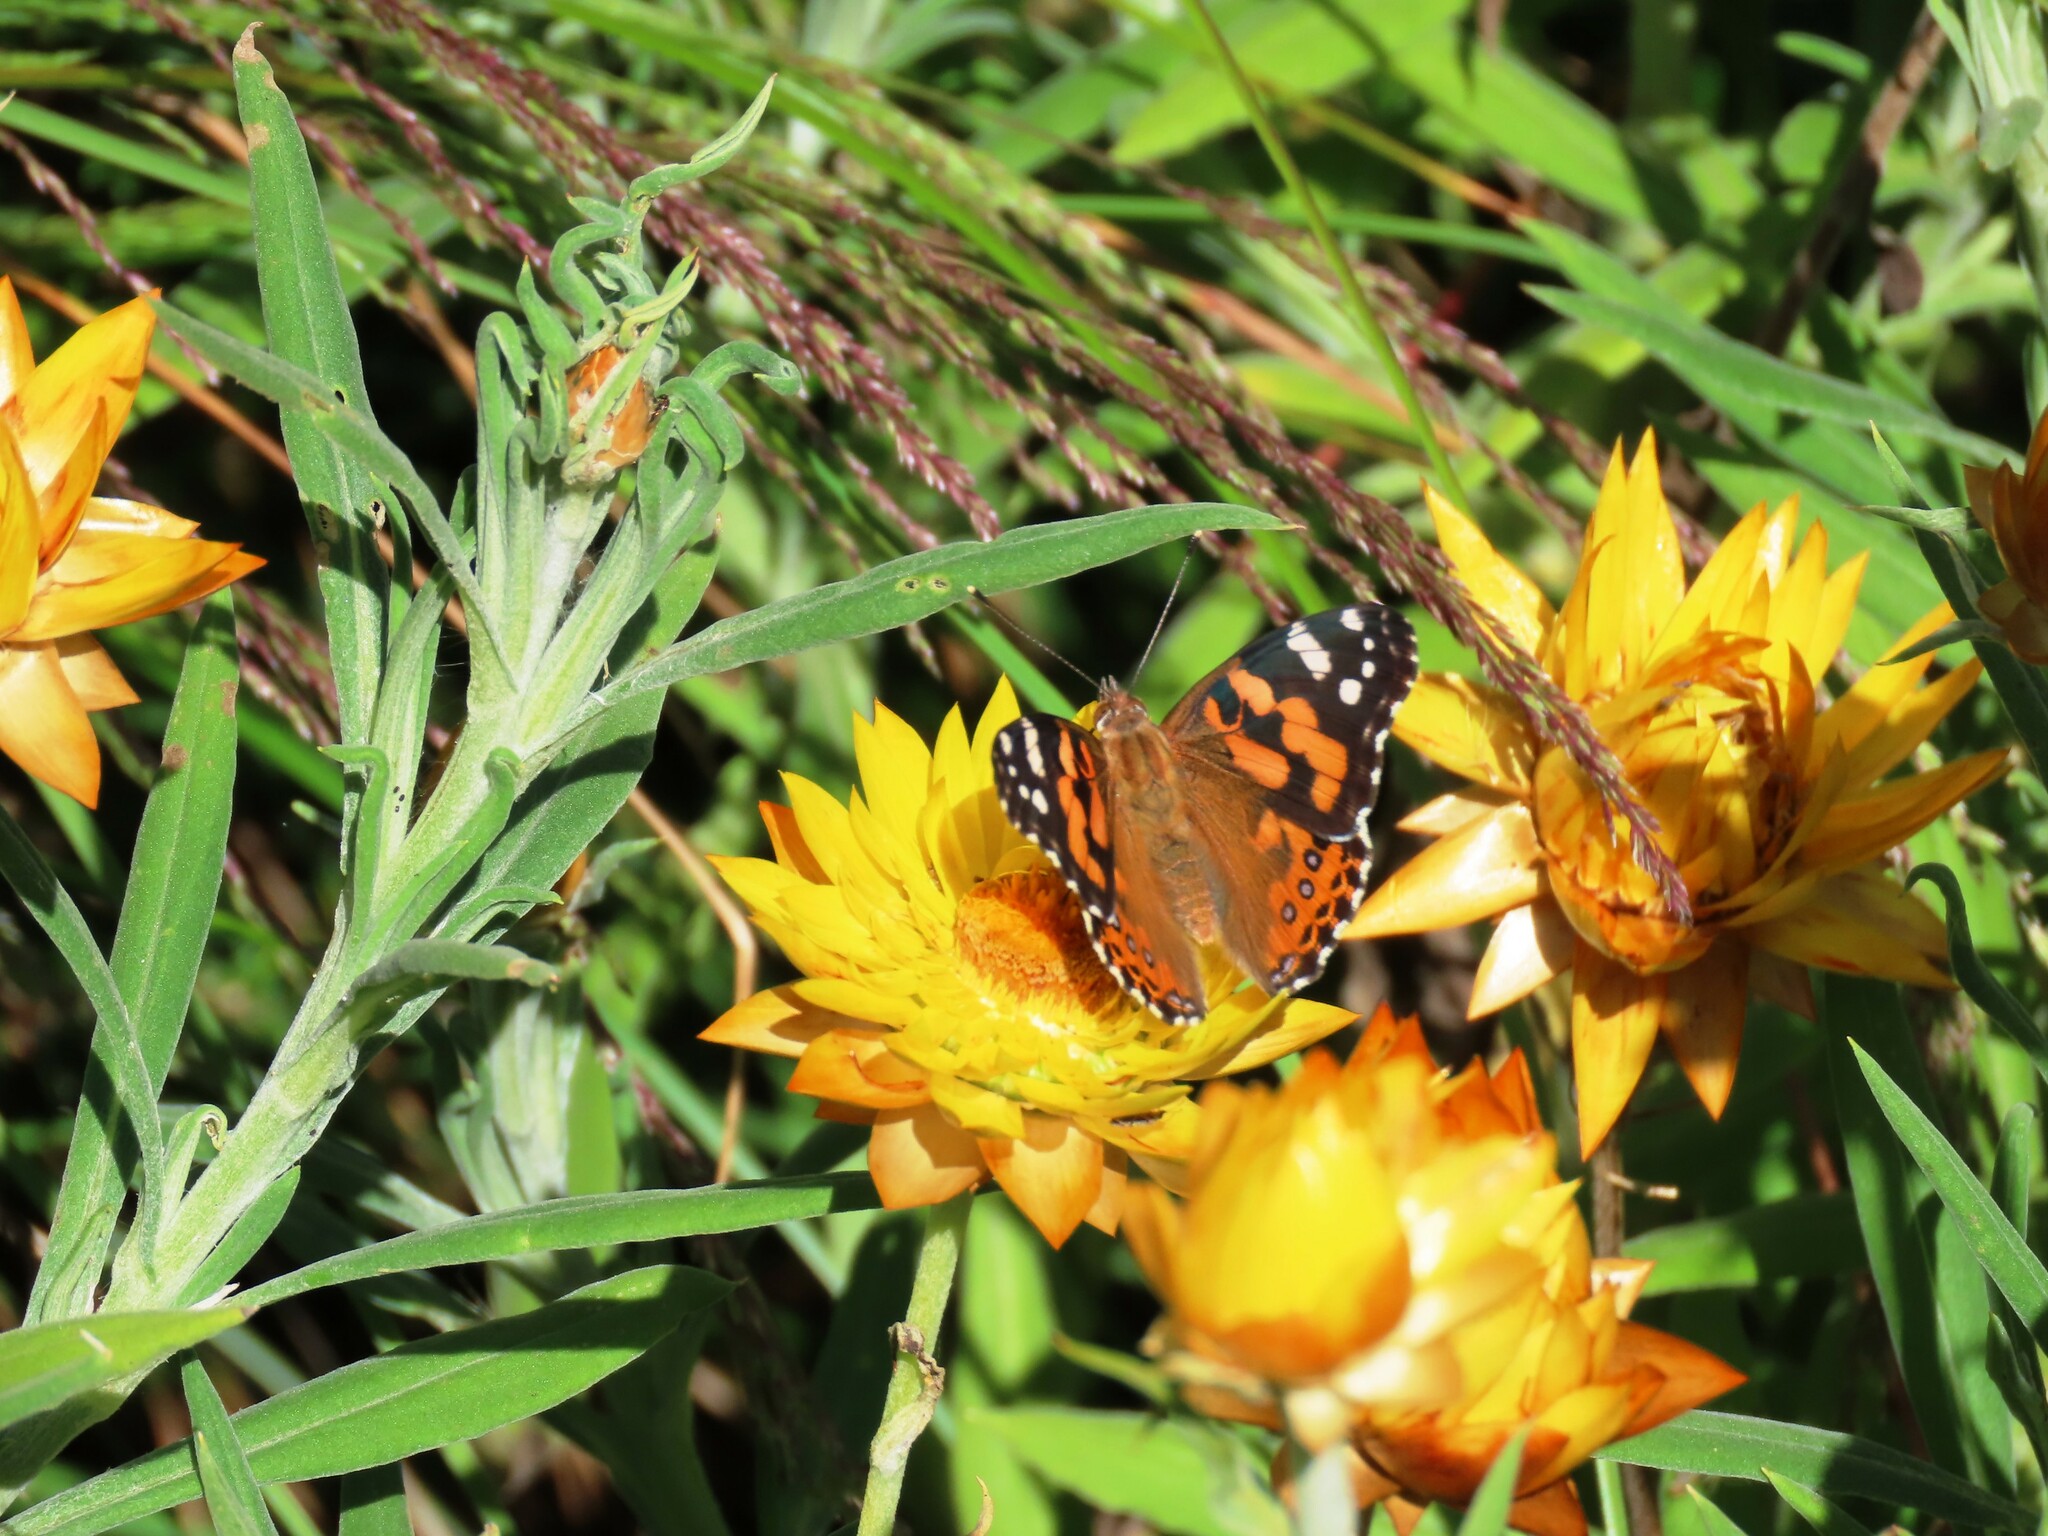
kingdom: Animalia
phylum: Arthropoda
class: Insecta
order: Lepidoptera
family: Nymphalidae
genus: Vanessa
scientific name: Vanessa kershawi
